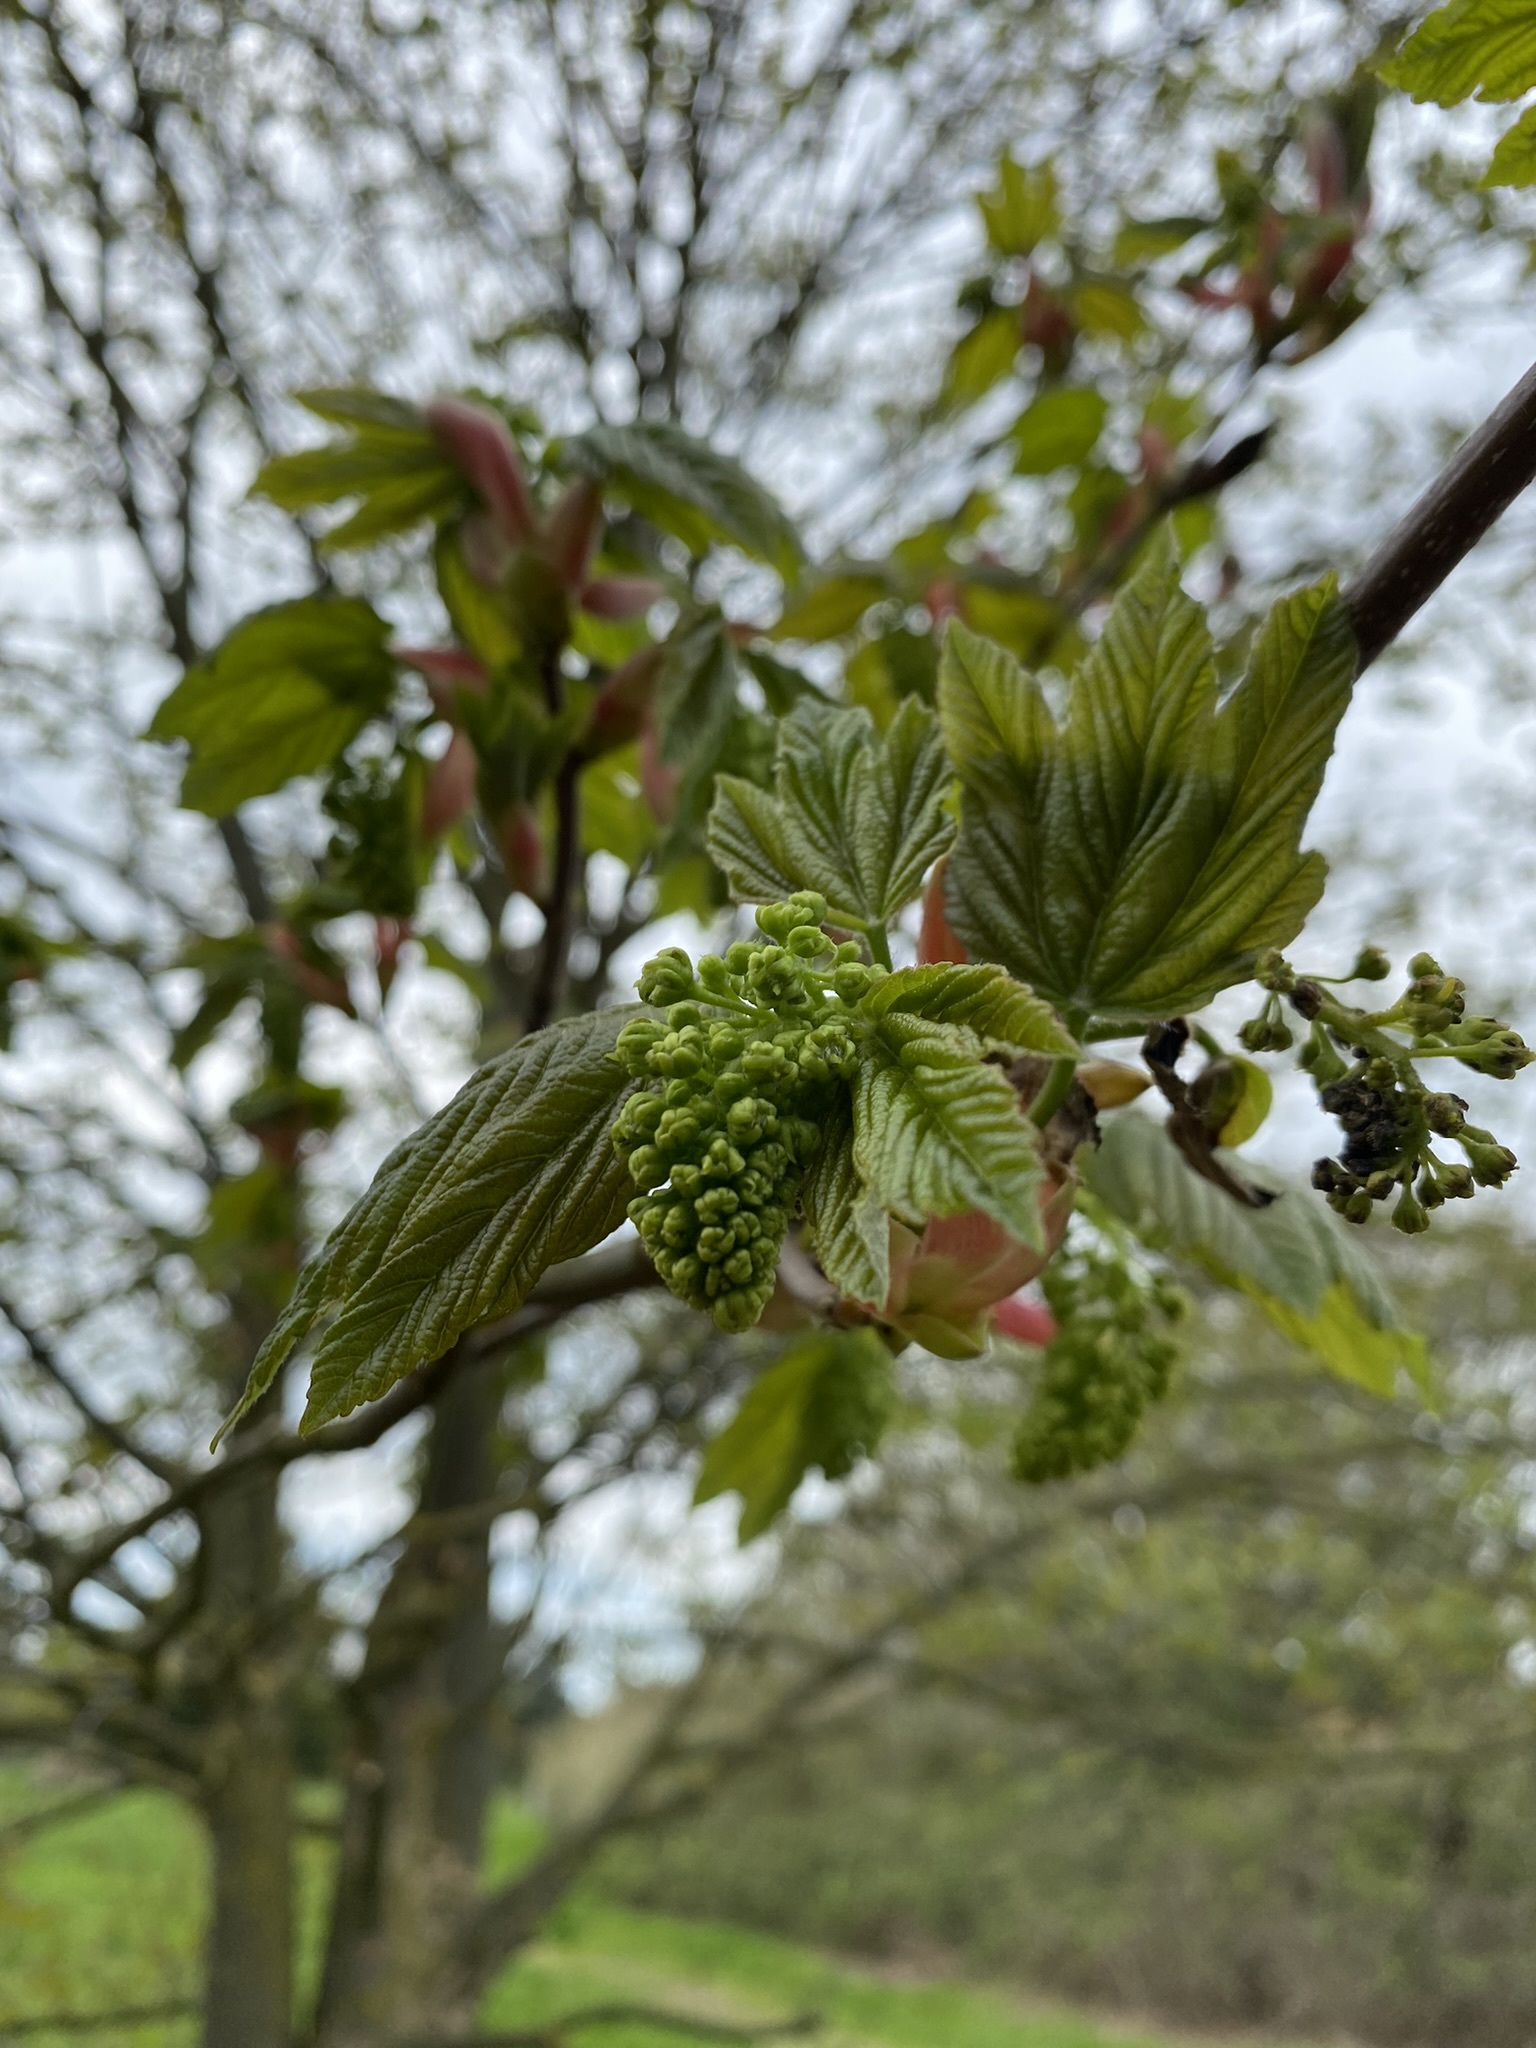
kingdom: Plantae
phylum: Tracheophyta
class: Magnoliopsida
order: Sapindales
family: Sapindaceae
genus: Acer
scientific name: Acer pseudoplatanus
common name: Sycamore
